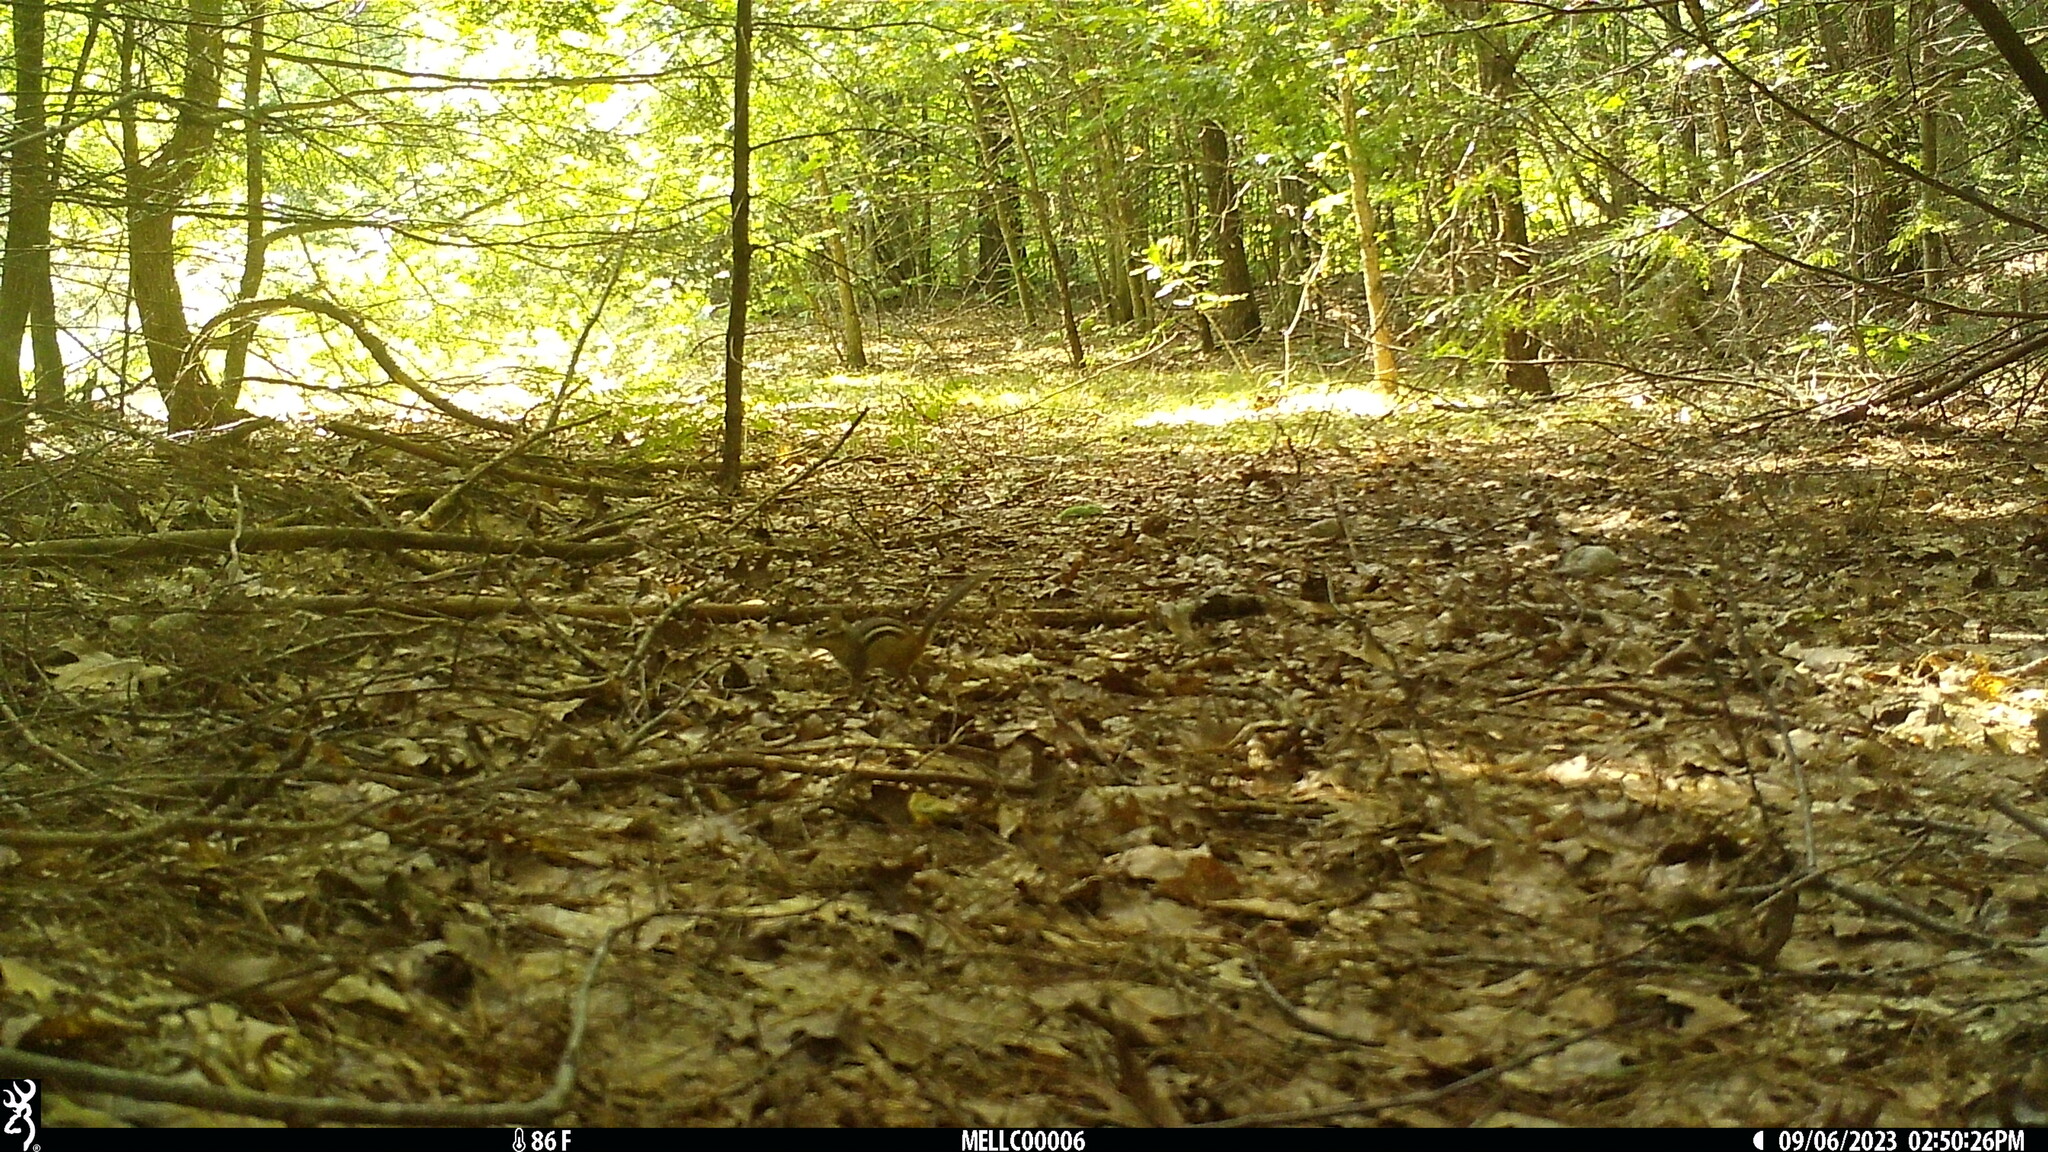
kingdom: Animalia
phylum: Chordata
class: Mammalia
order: Rodentia
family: Sciuridae
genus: Tamias
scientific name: Tamias striatus
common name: Eastern chipmunk
